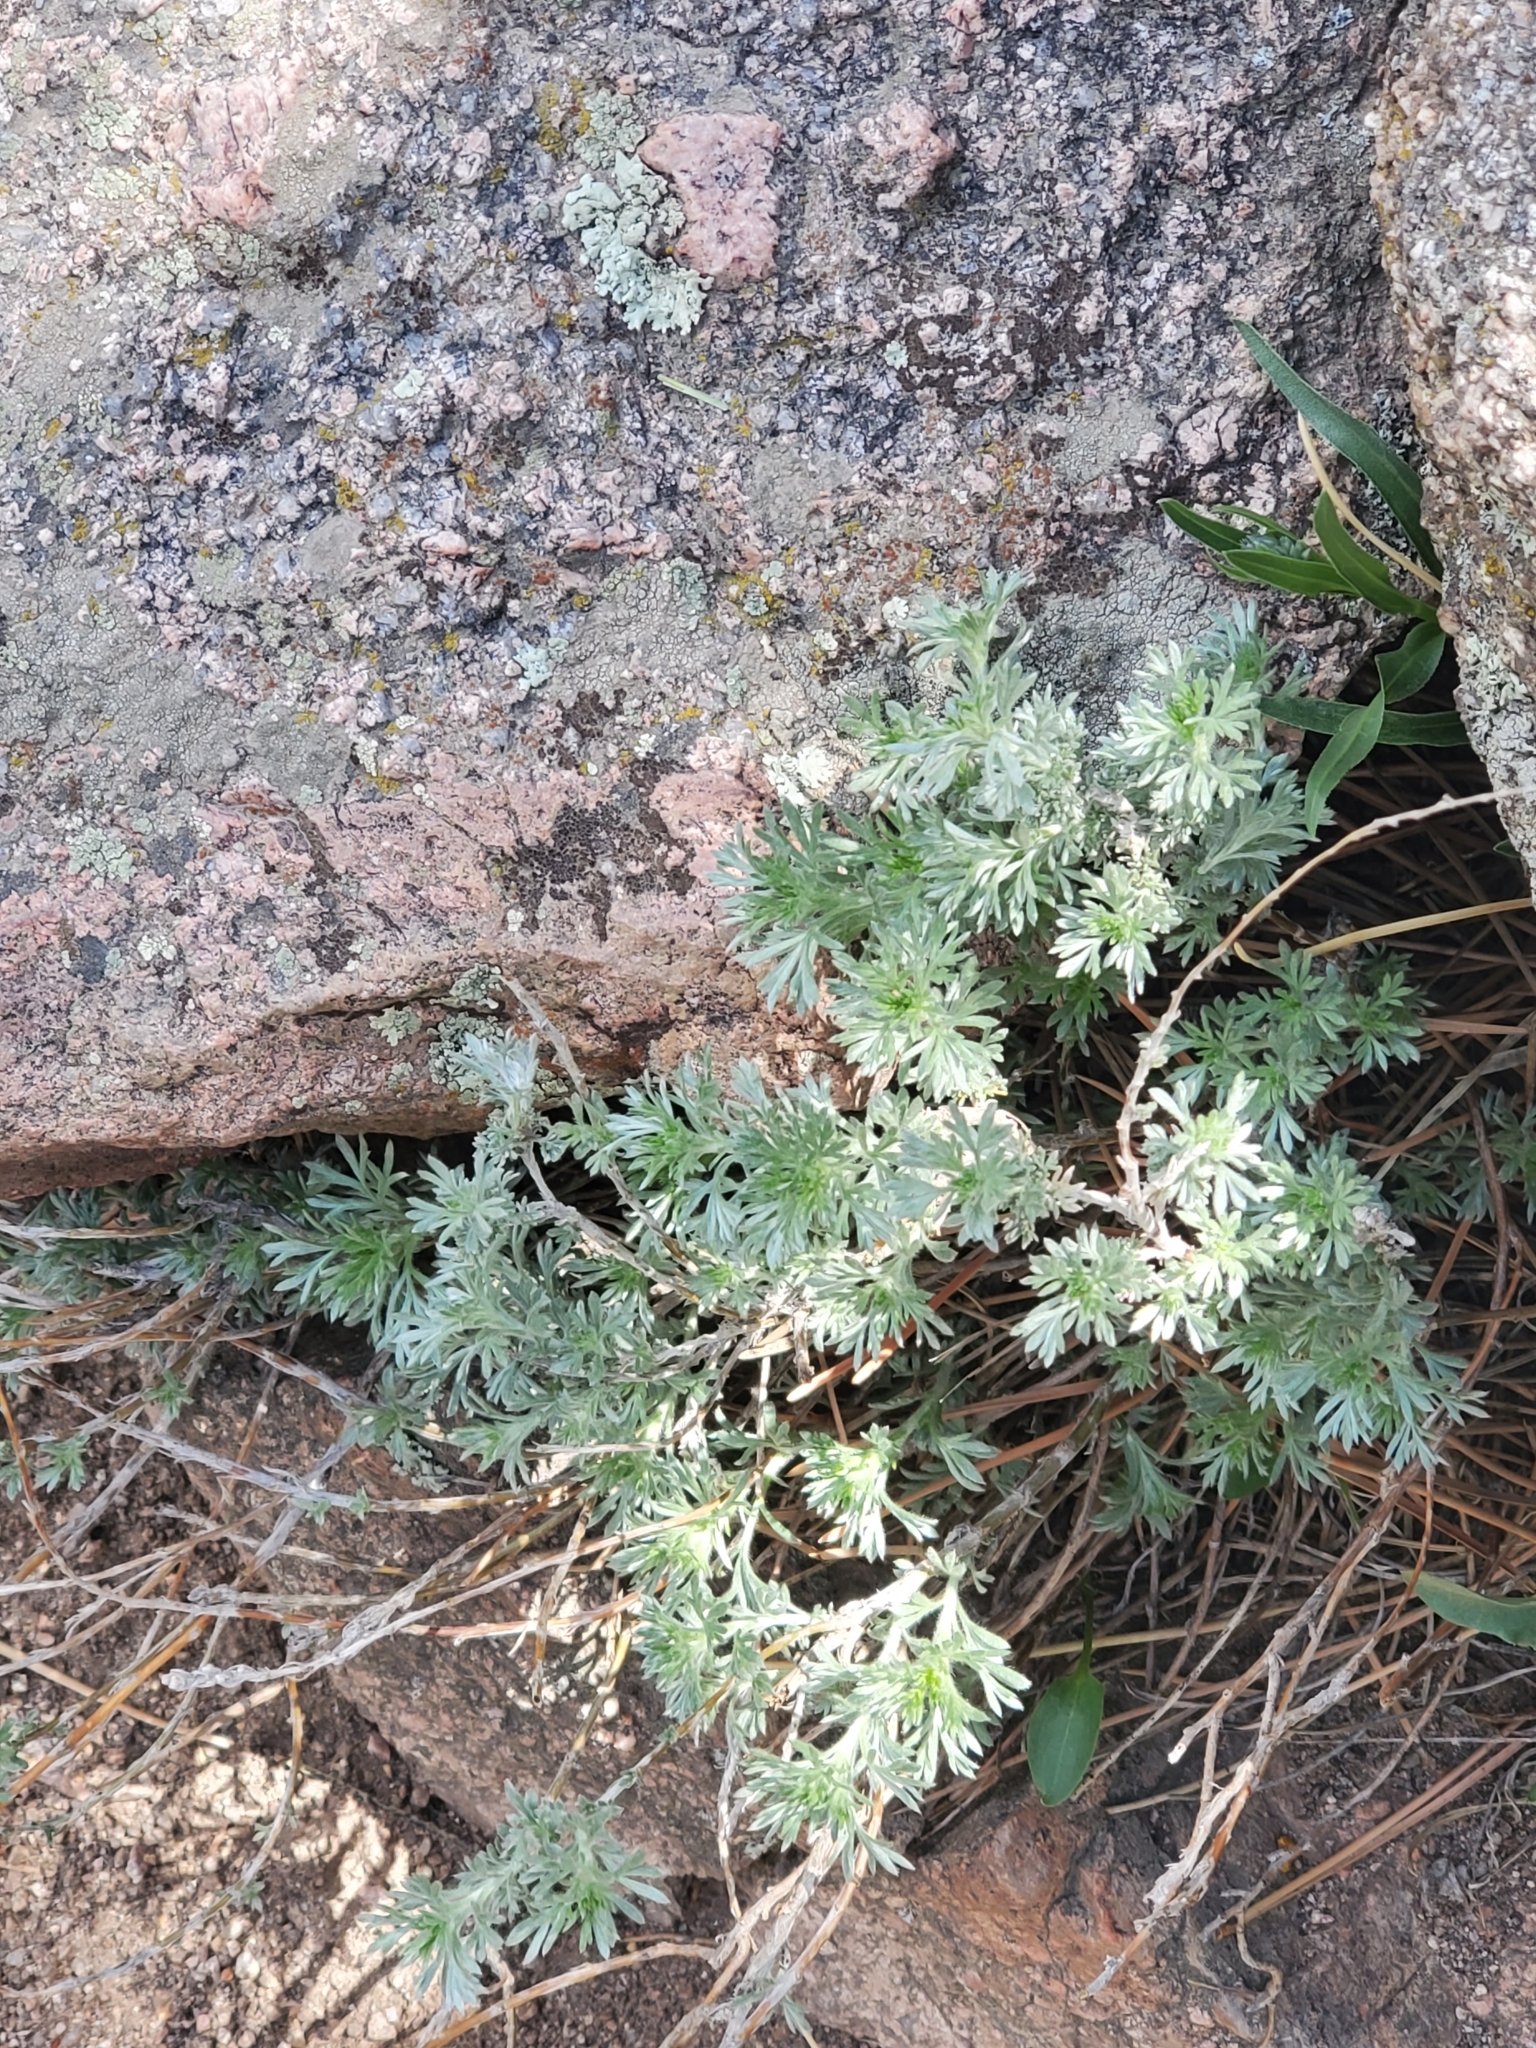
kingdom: Plantae
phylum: Tracheophyta
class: Magnoliopsida
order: Asterales
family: Asteraceae
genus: Artemisia
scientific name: Artemisia frigida
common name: Prairie sagewort
